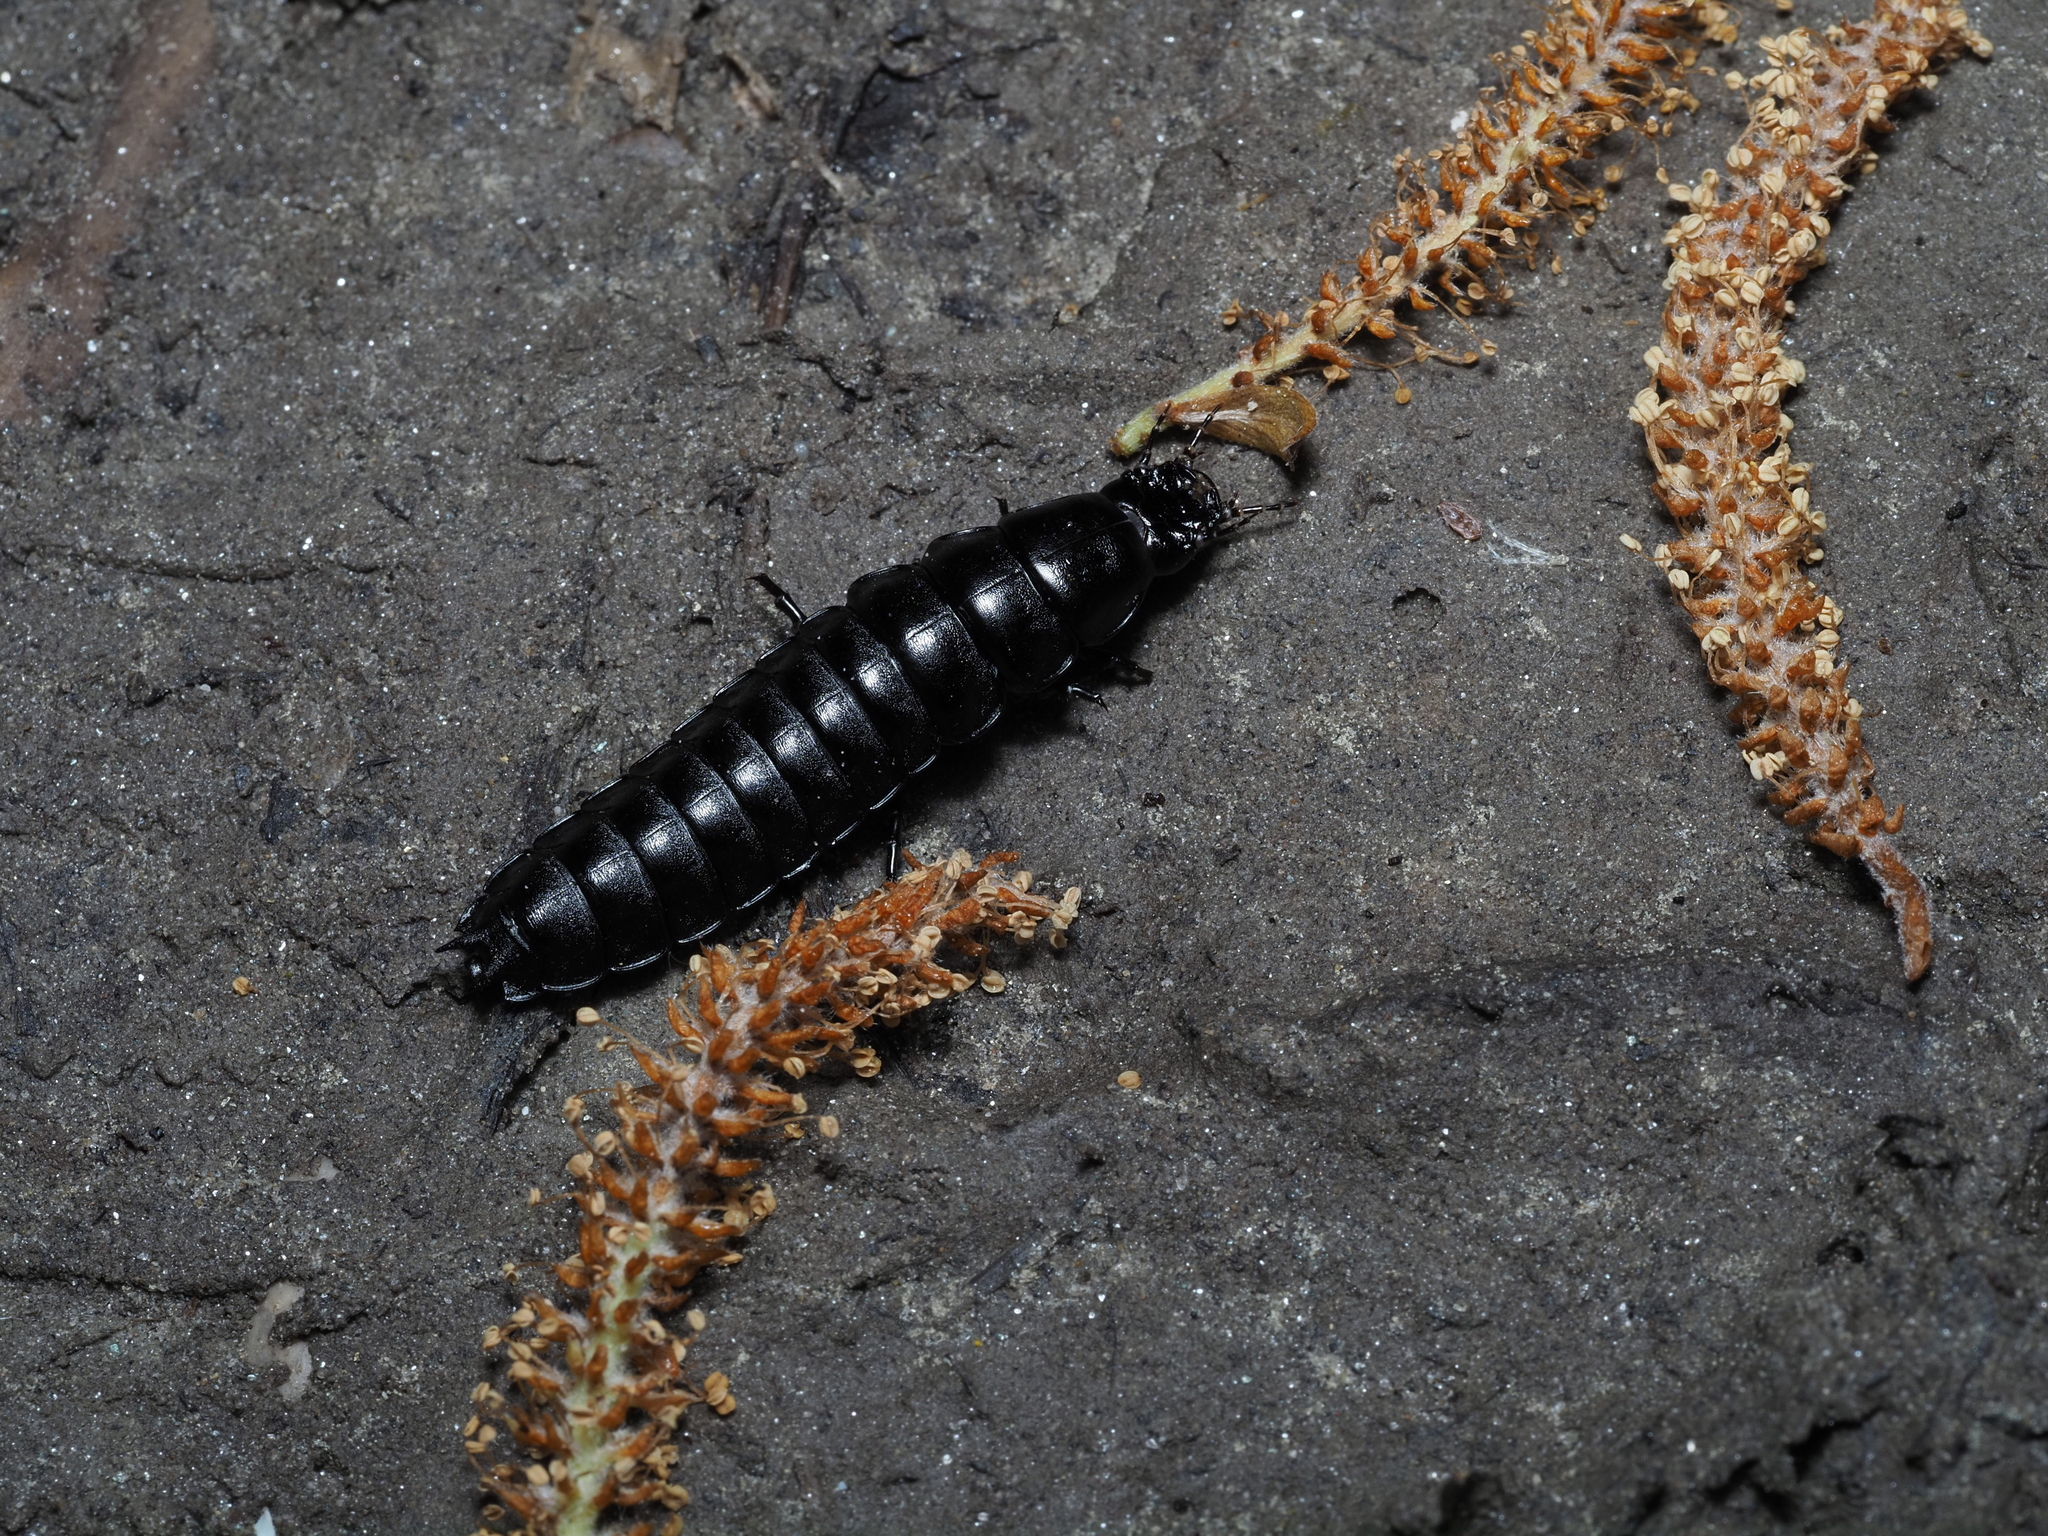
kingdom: Animalia
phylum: Arthropoda
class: Insecta
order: Coleoptera
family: Carabidae
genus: Carabus
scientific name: Carabus
